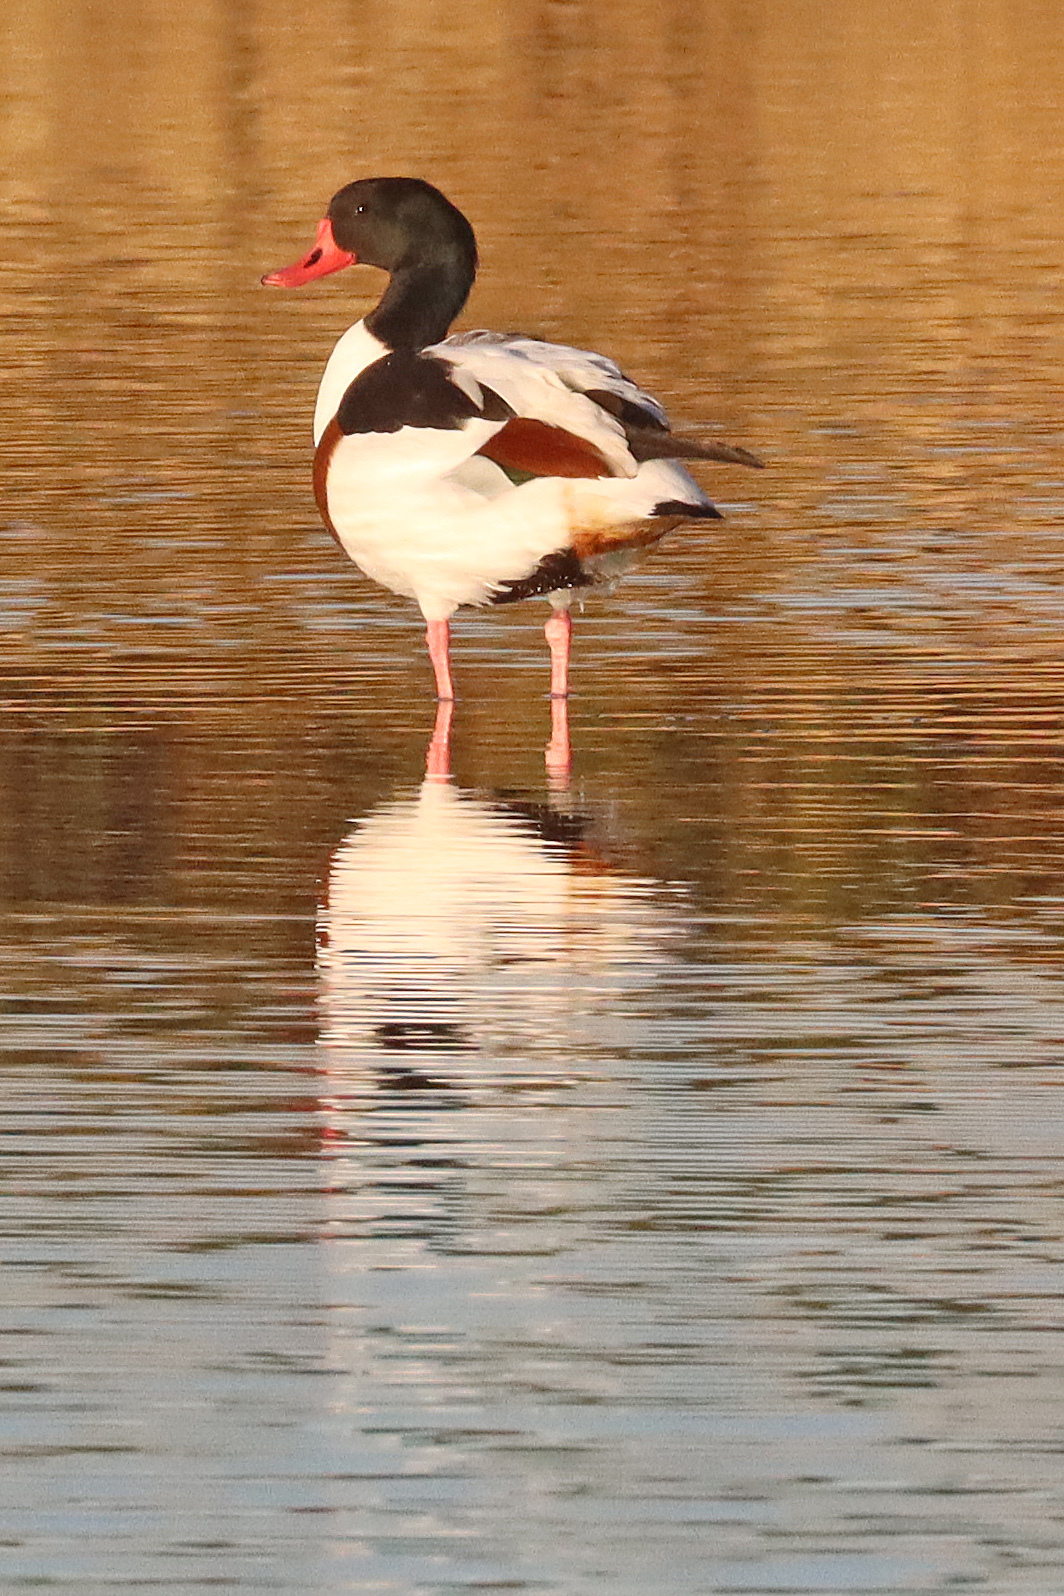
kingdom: Animalia
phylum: Chordata
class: Aves
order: Anseriformes
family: Anatidae
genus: Tadorna
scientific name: Tadorna tadorna
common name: Common shelduck
